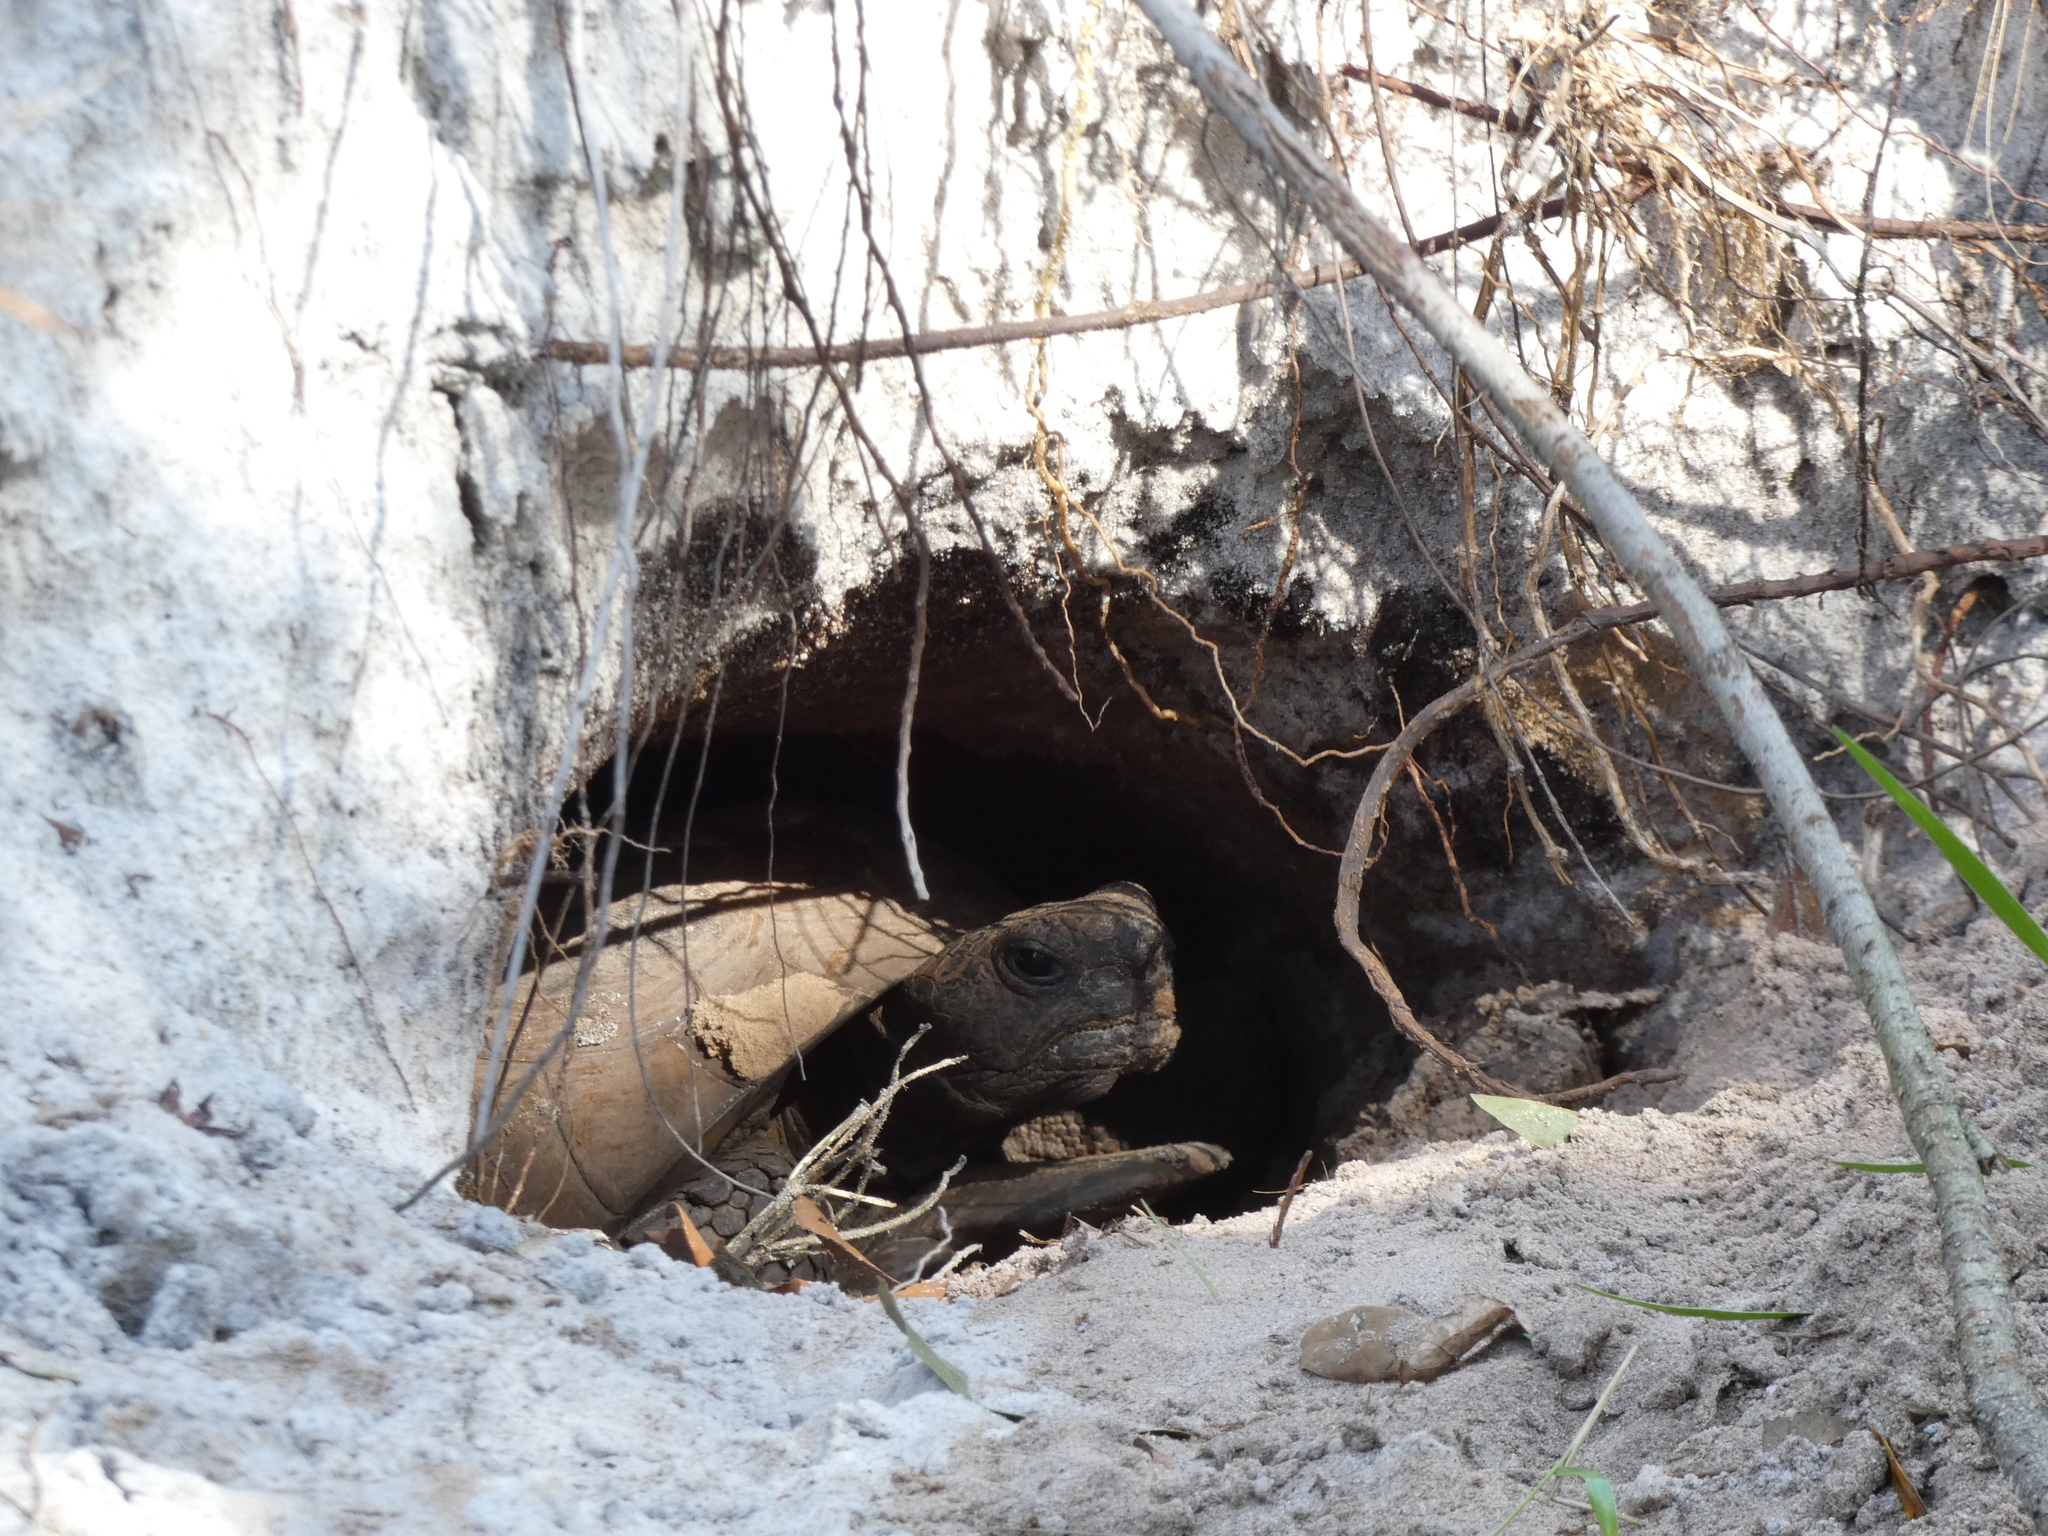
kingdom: Animalia
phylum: Chordata
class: Testudines
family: Testudinidae
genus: Gopherus
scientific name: Gopherus polyphemus
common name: Florida gopher tortoise
